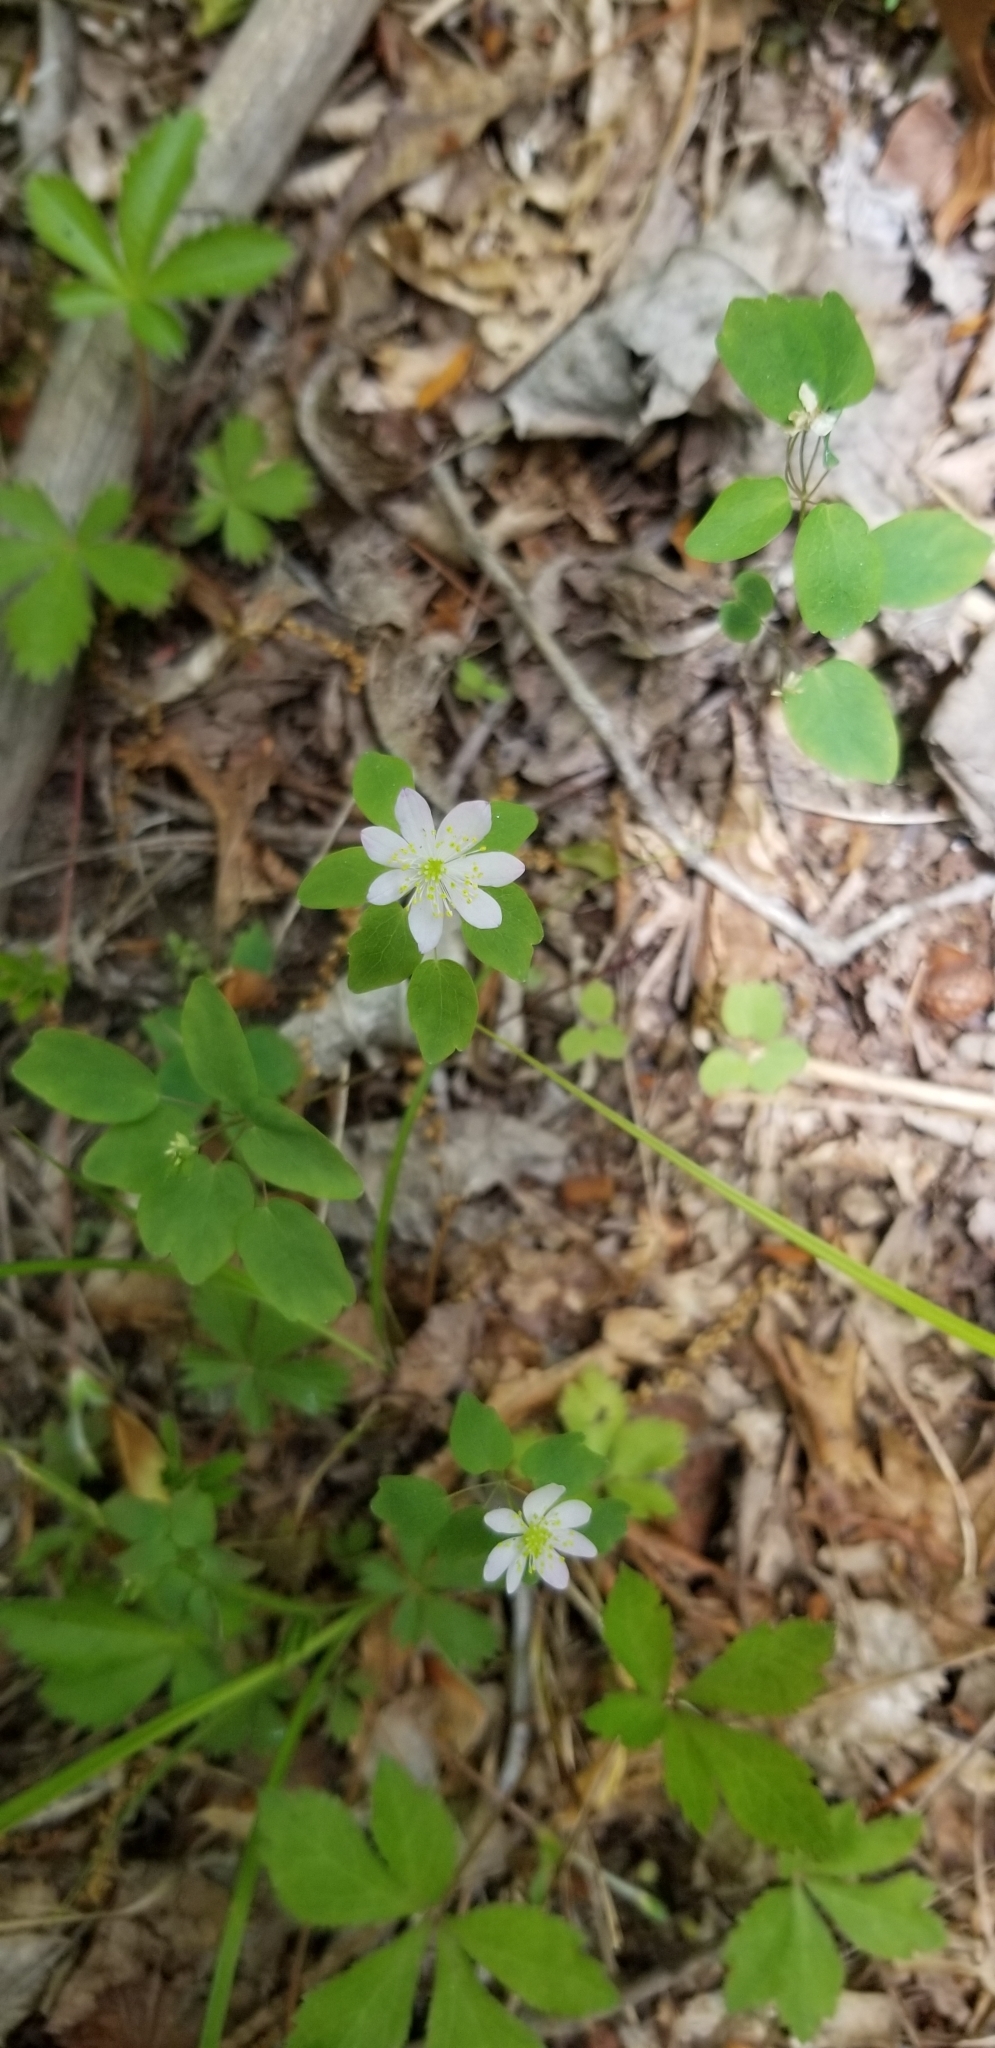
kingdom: Plantae
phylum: Tracheophyta
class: Magnoliopsida
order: Ranunculales
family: Ranunculaceae
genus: Thalictrum
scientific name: Thalictrum thalictroides
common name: Rue-anemone
